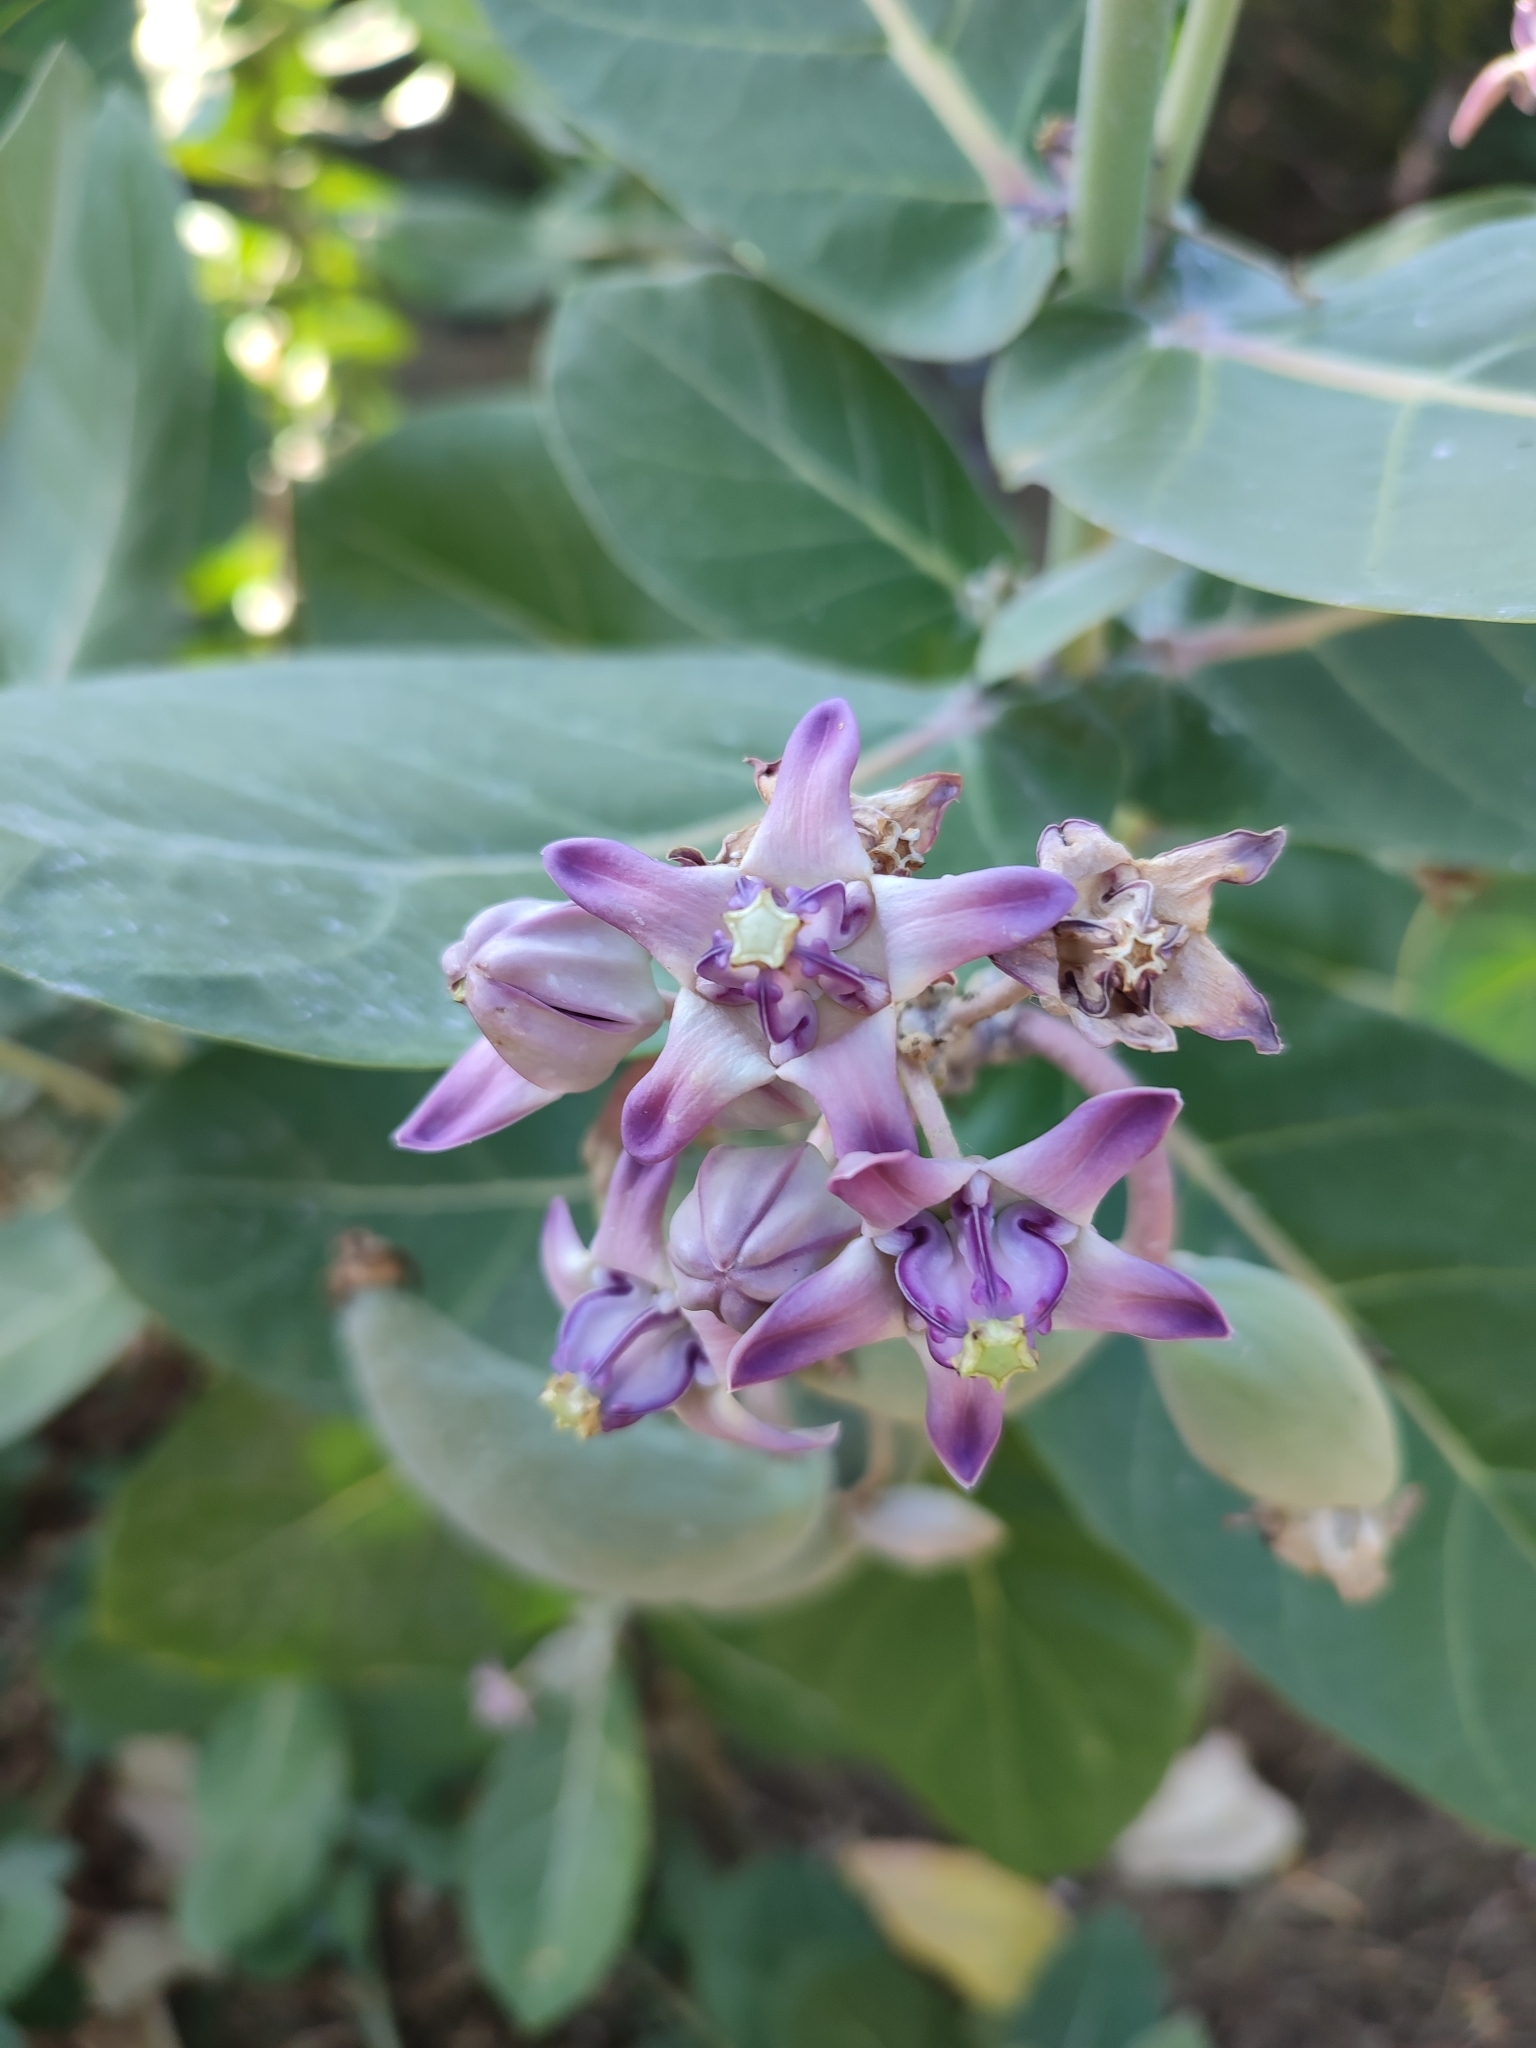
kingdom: Plantae
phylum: Tracheophyta
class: Magnoliopsida
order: Gentianales
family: Apocynaceae
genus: Calotropis
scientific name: Calotropis gigantea
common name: Crown flower
